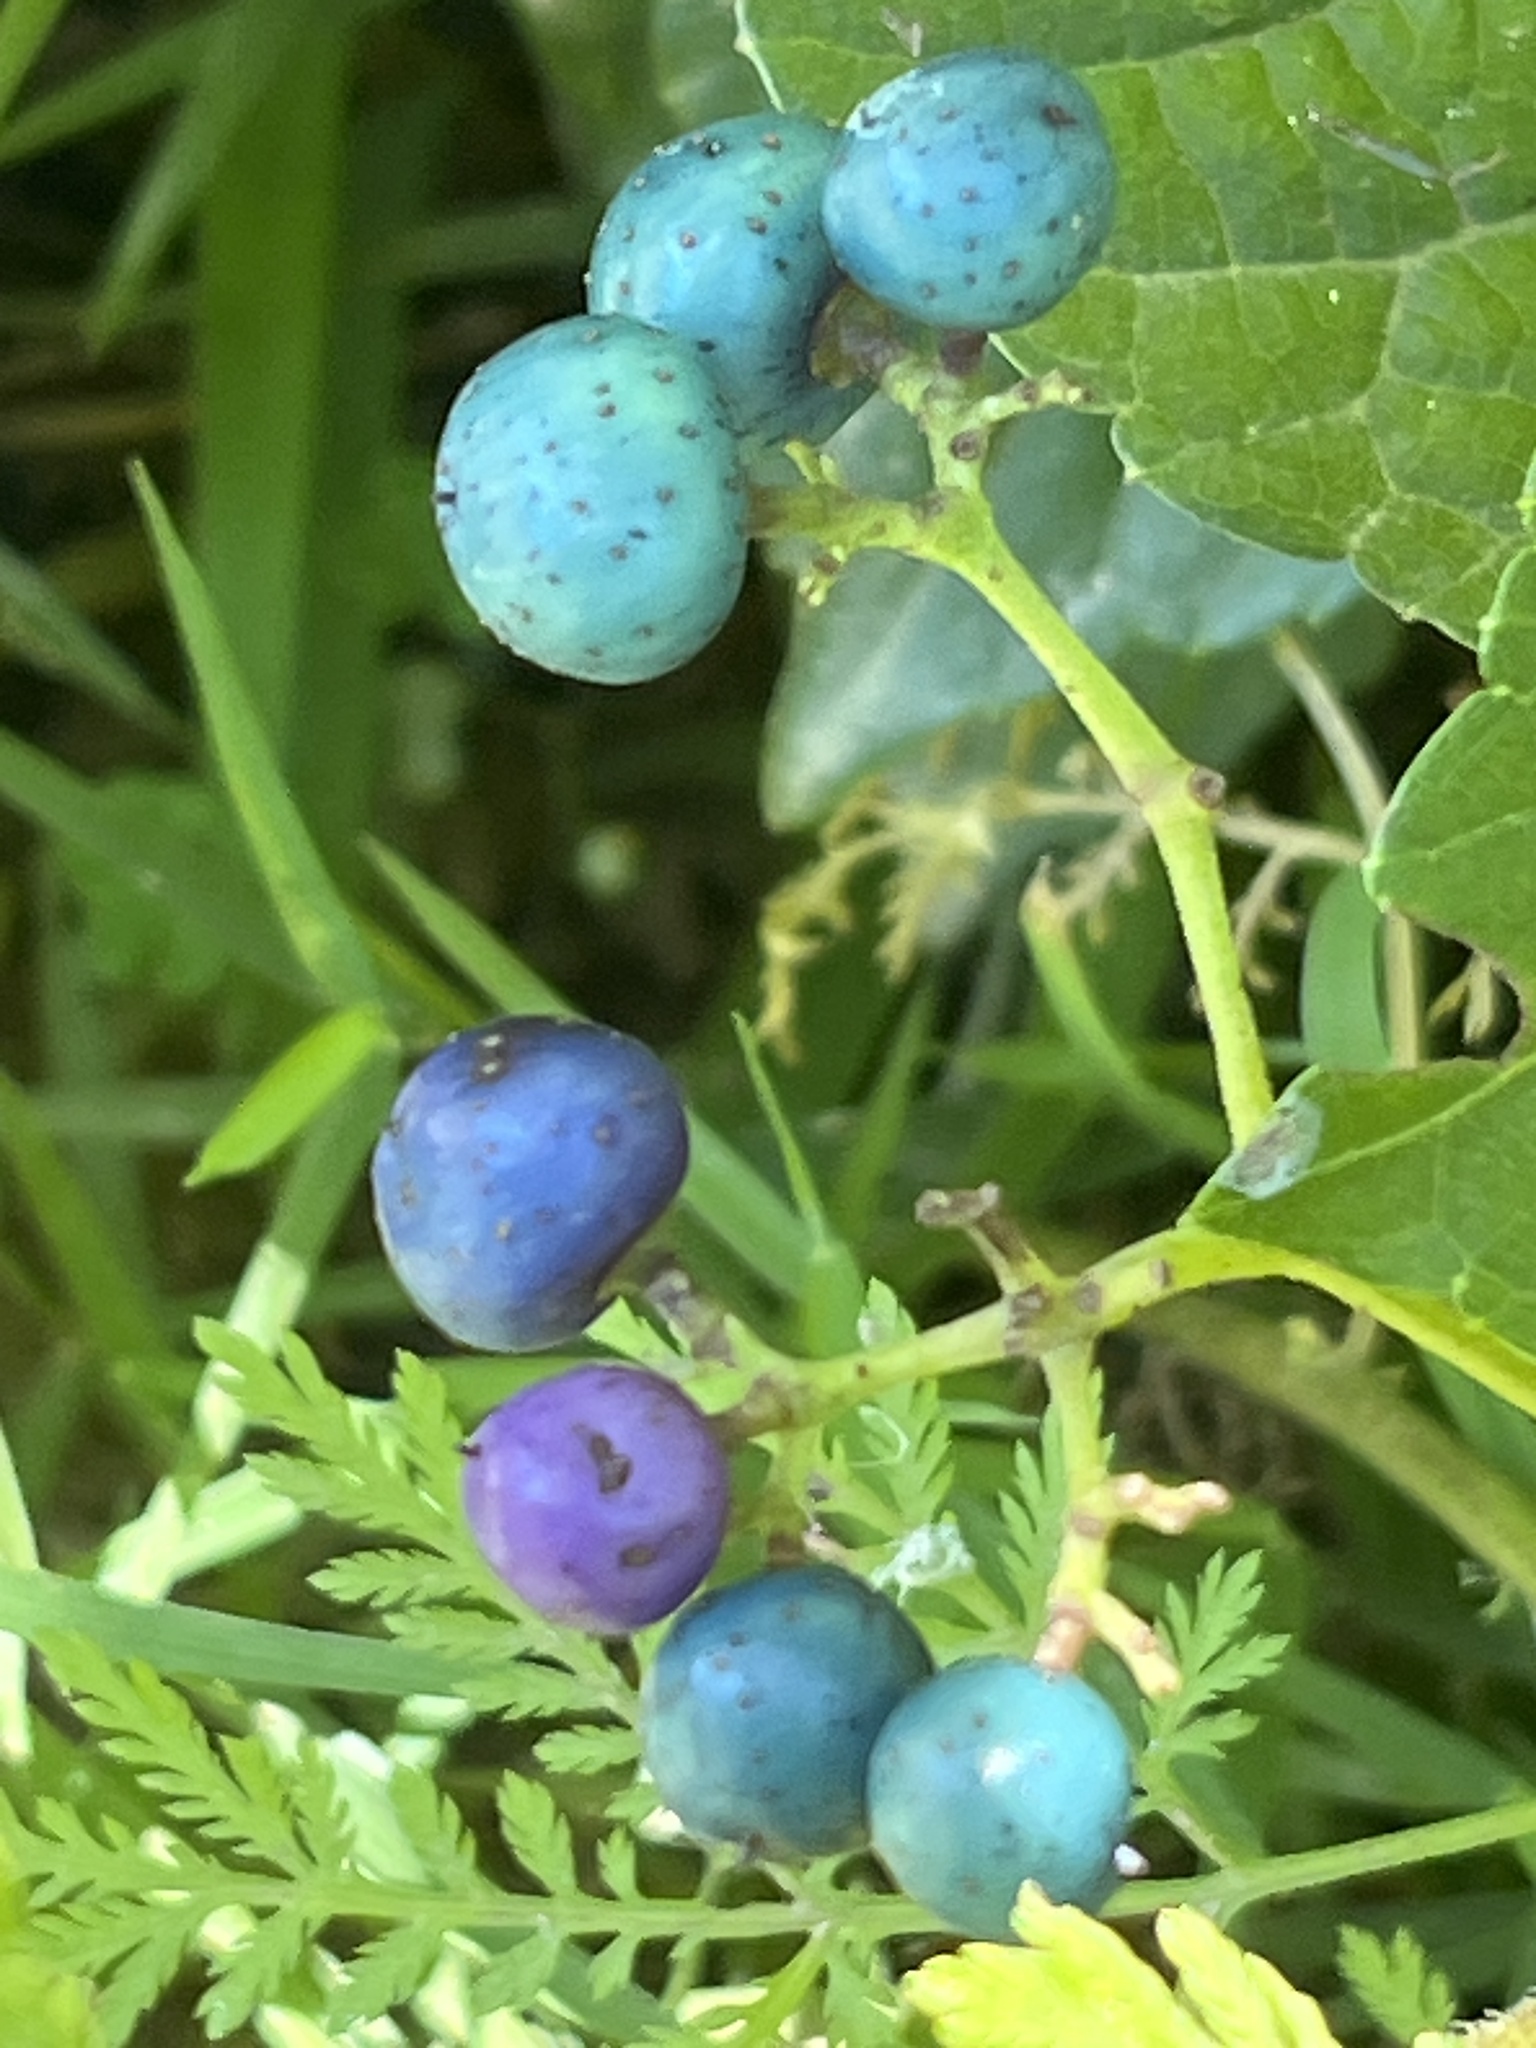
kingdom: Plantae
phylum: Tracheophyta
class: Magnoliopsida
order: Vitales
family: Vitaceae
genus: Ampelopsis
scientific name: Ampelopsis glandulosa
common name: Amur peppervine
